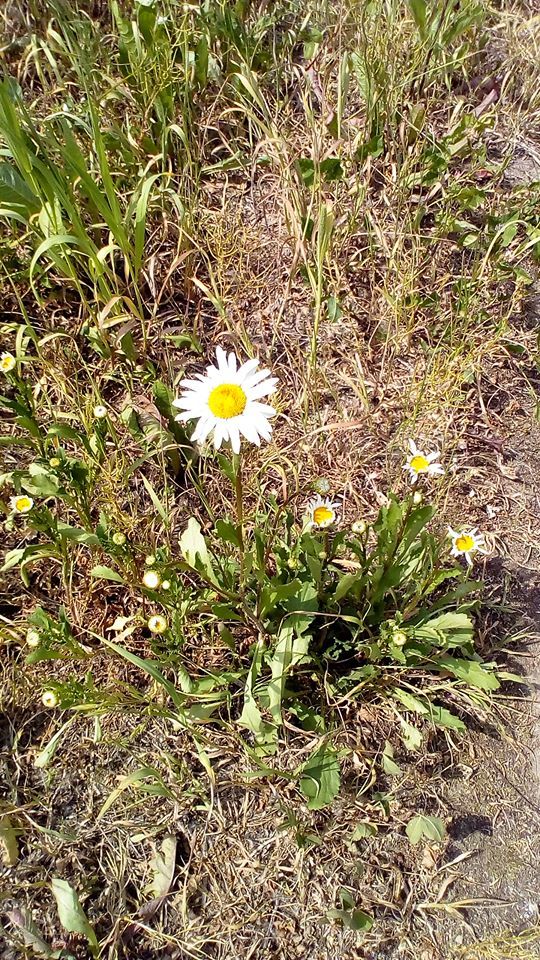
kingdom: Plantae
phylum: Tracheophyta
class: Magnoliopsida
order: Asterales
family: Asteraceae
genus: Leucanthemum
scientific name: Leucanthemum vulgare
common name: Oxeye daisy
